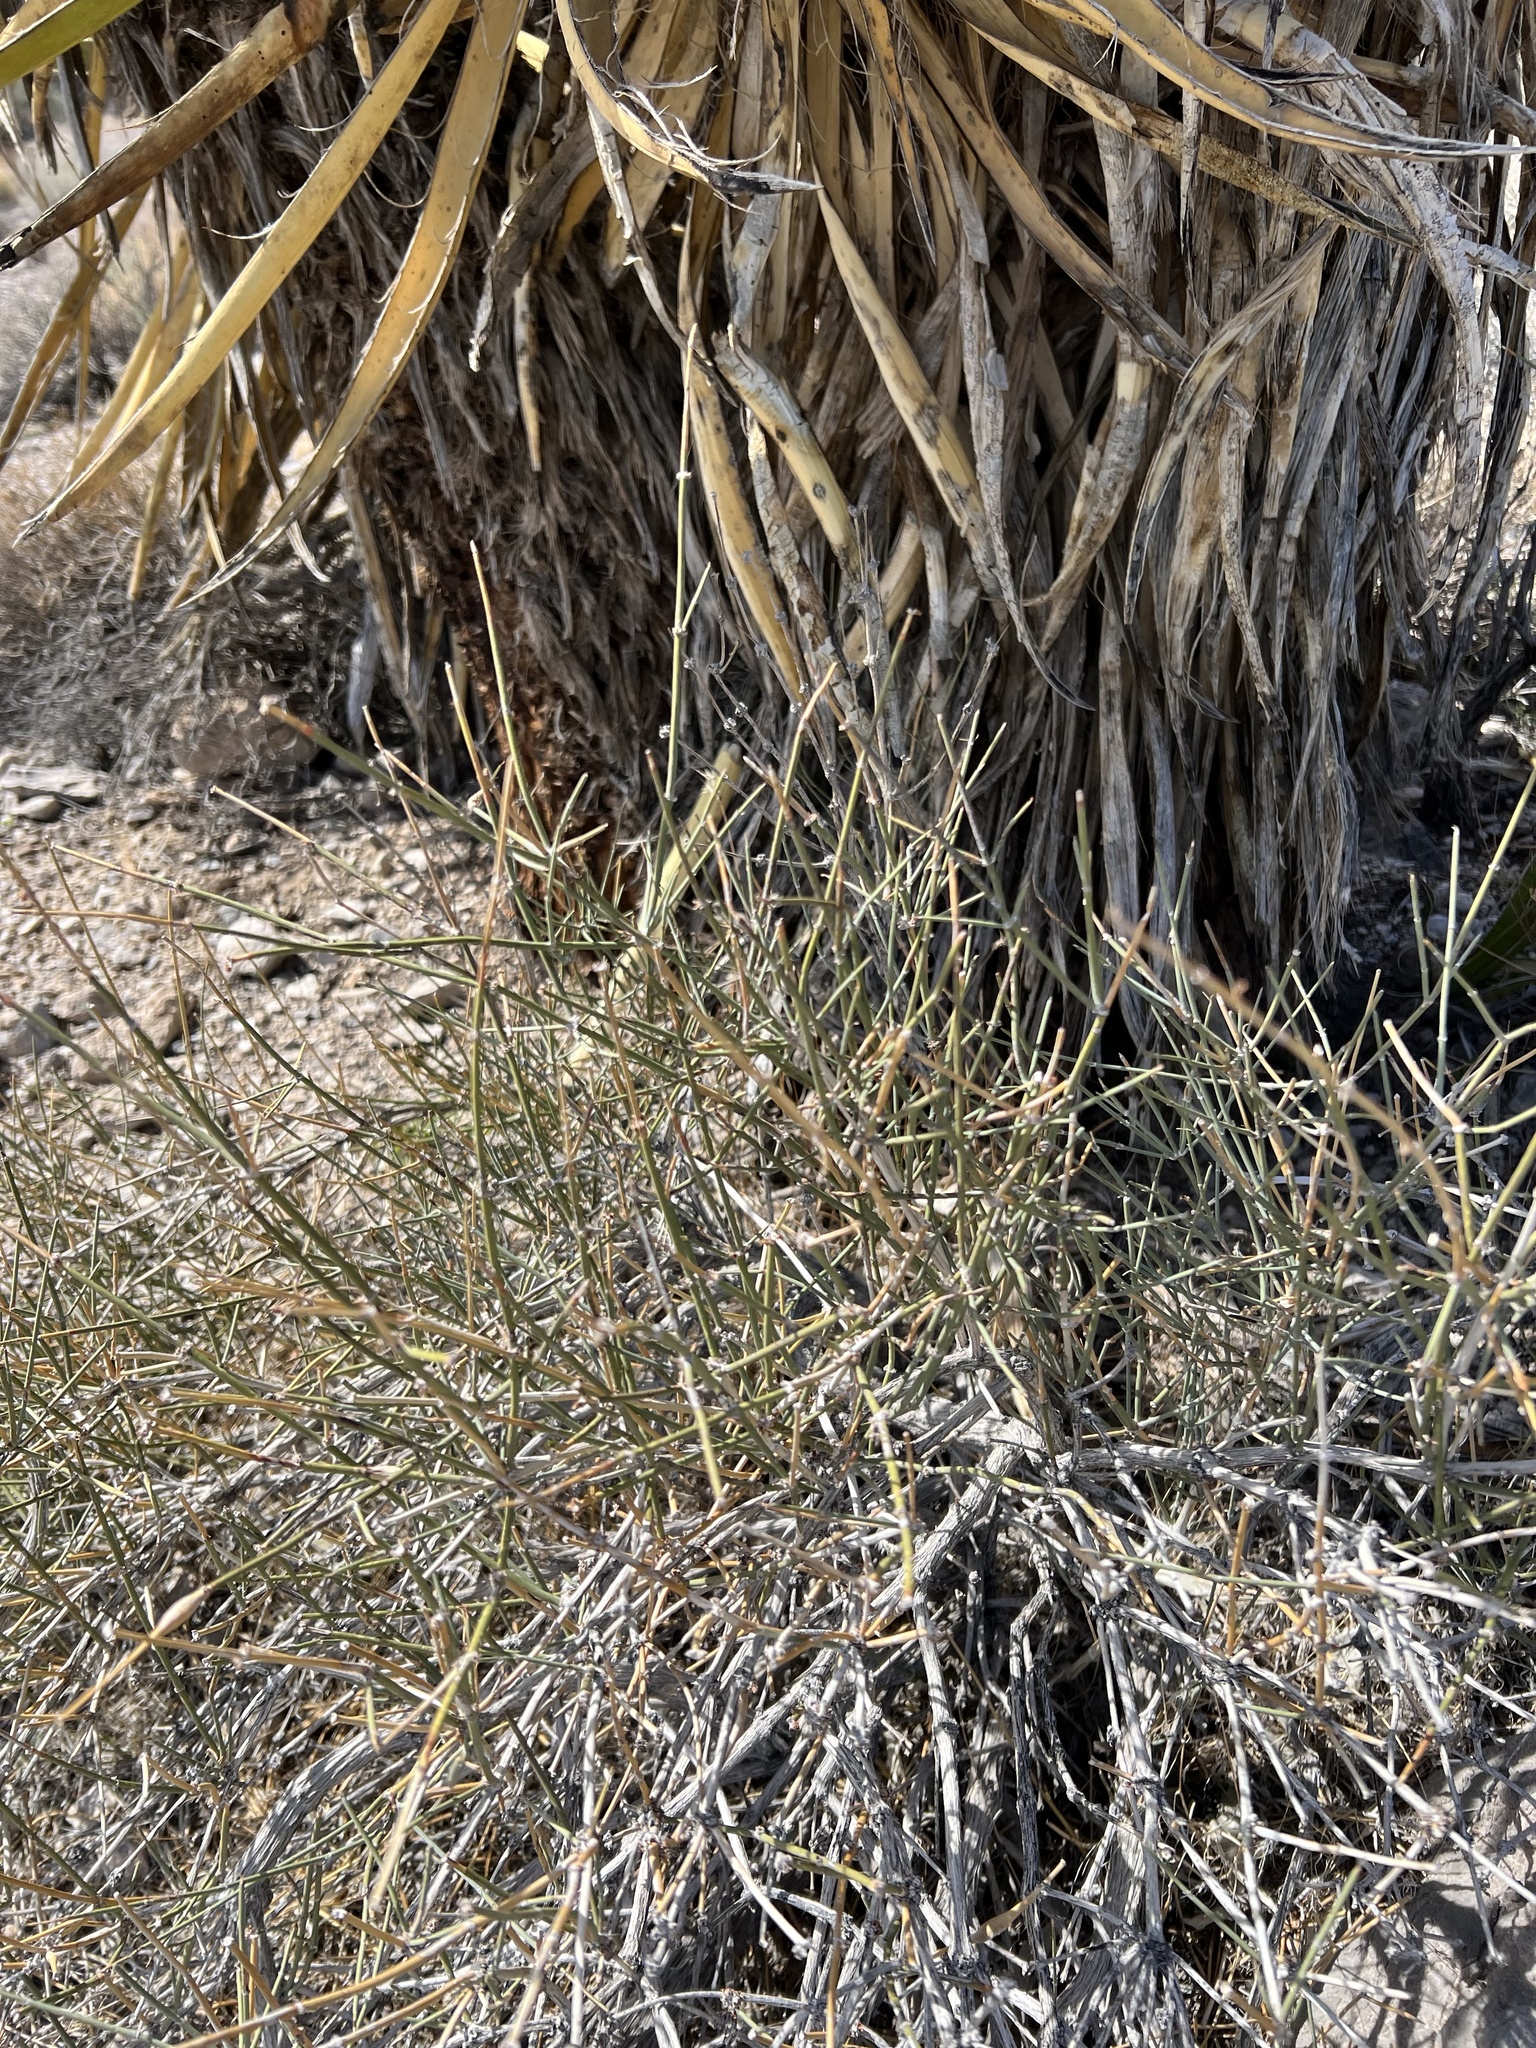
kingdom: Plantae
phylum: Tracheophyta
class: Gnetopsida
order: Ephedrales
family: Ephedraceae
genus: Ephedra
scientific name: Ephedra nevadensis
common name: Gray ephedra
